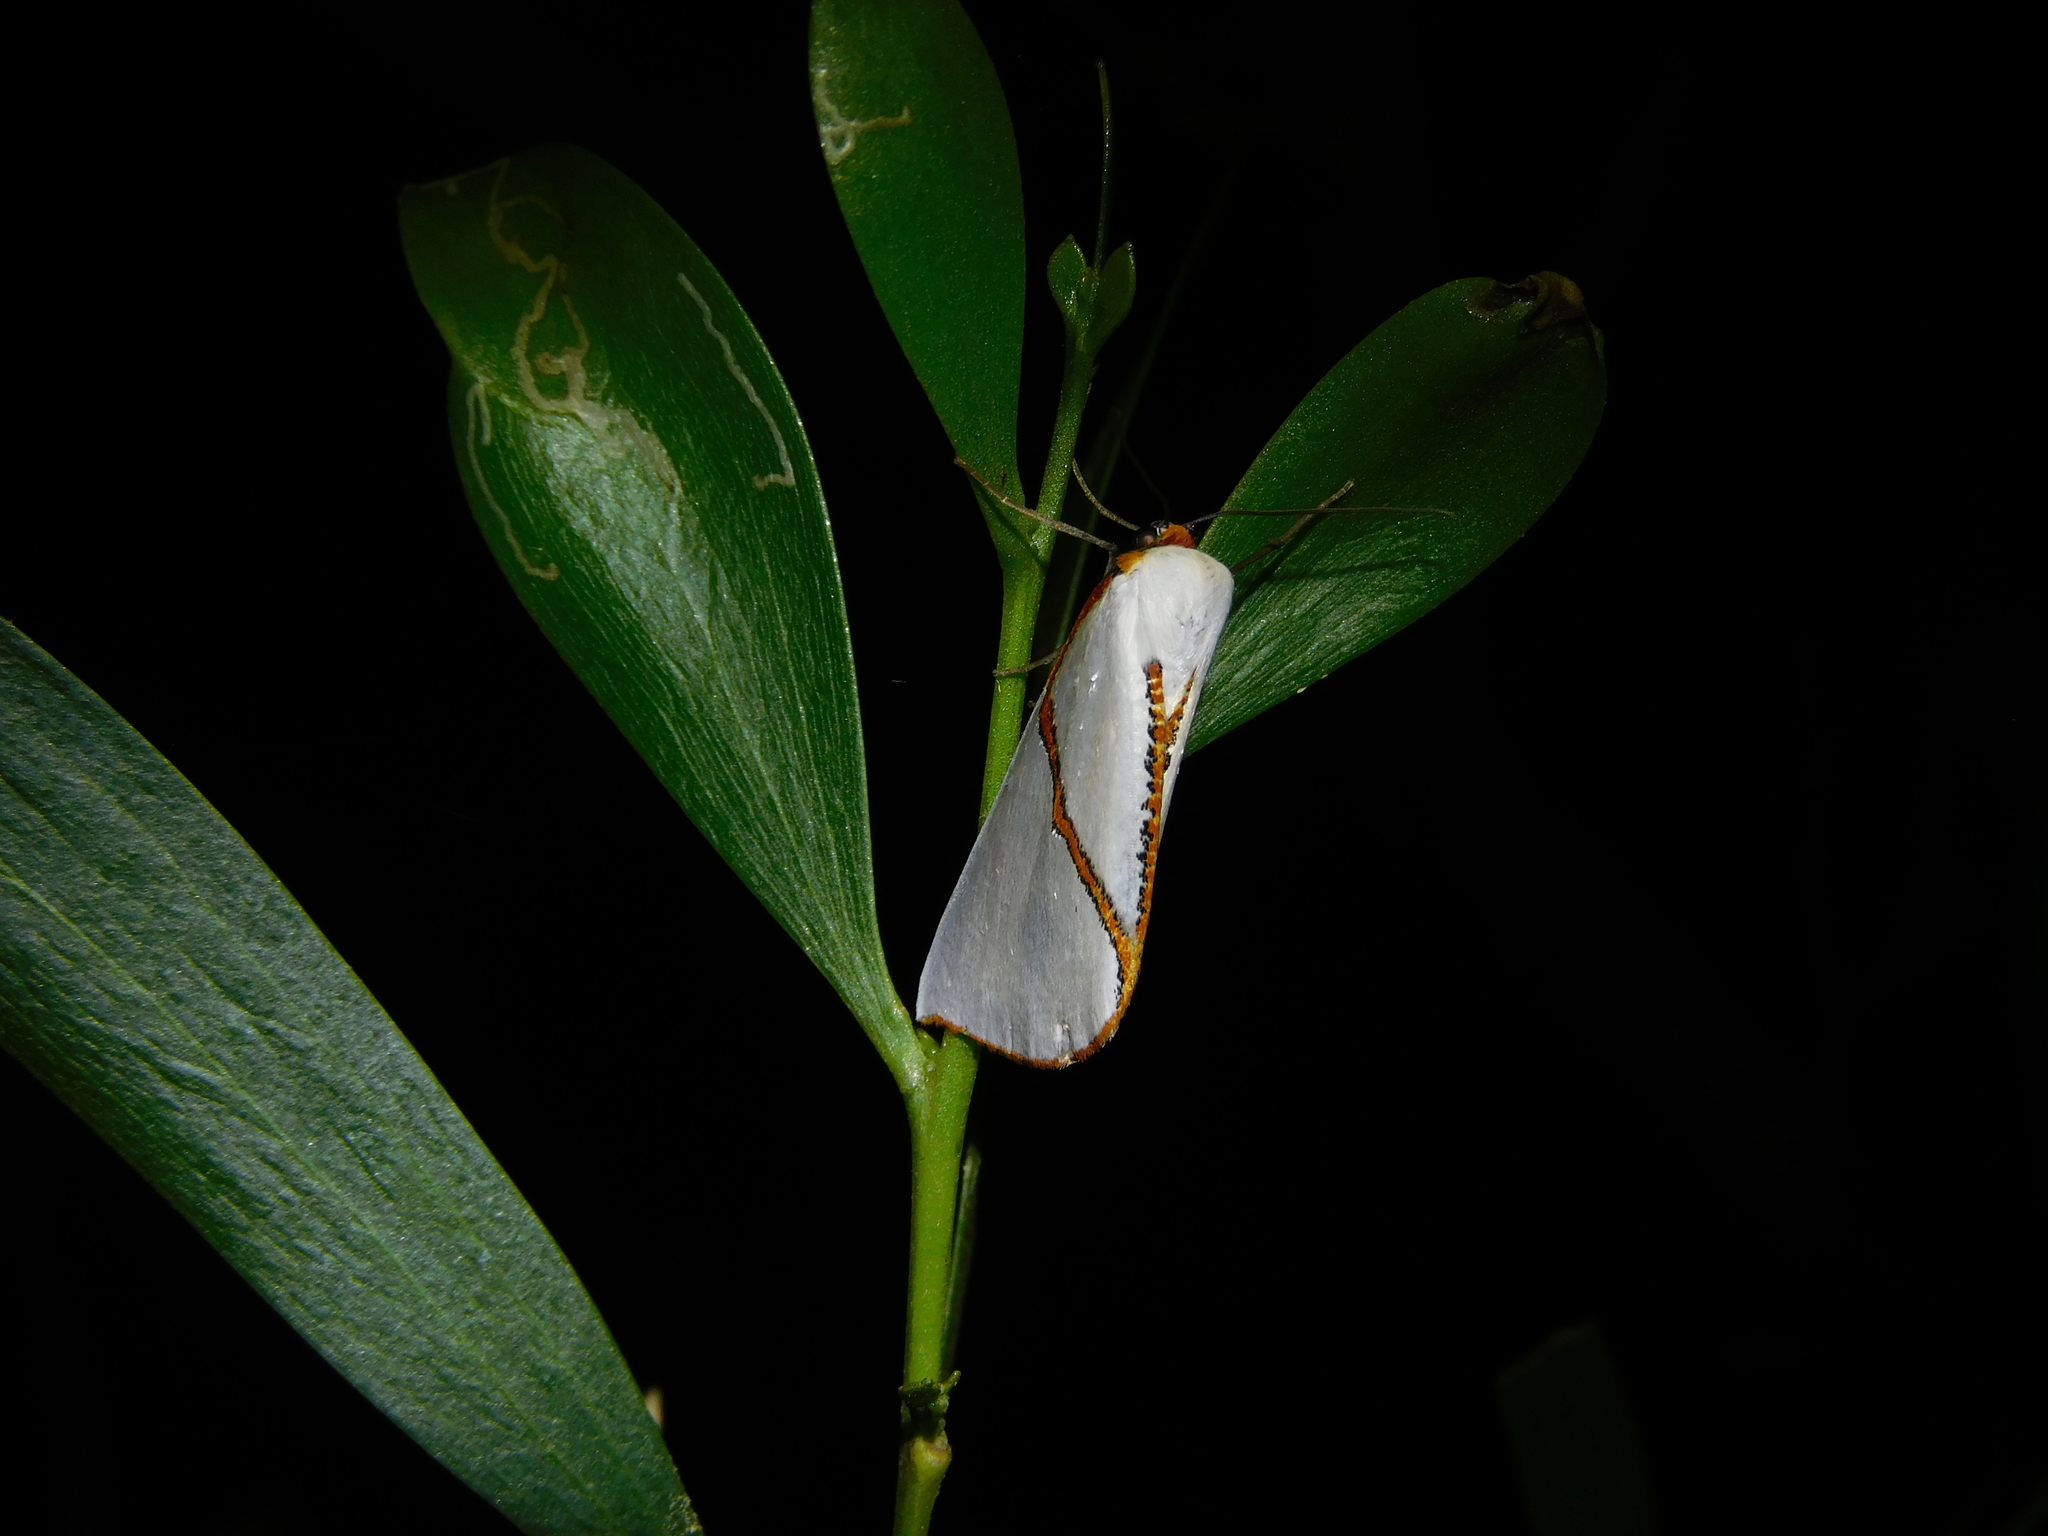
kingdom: Animalia
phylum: Arthropoda
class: Insecta
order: Lepidoptera
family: Geometridae
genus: Thalaina
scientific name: Thalaina selenaea
